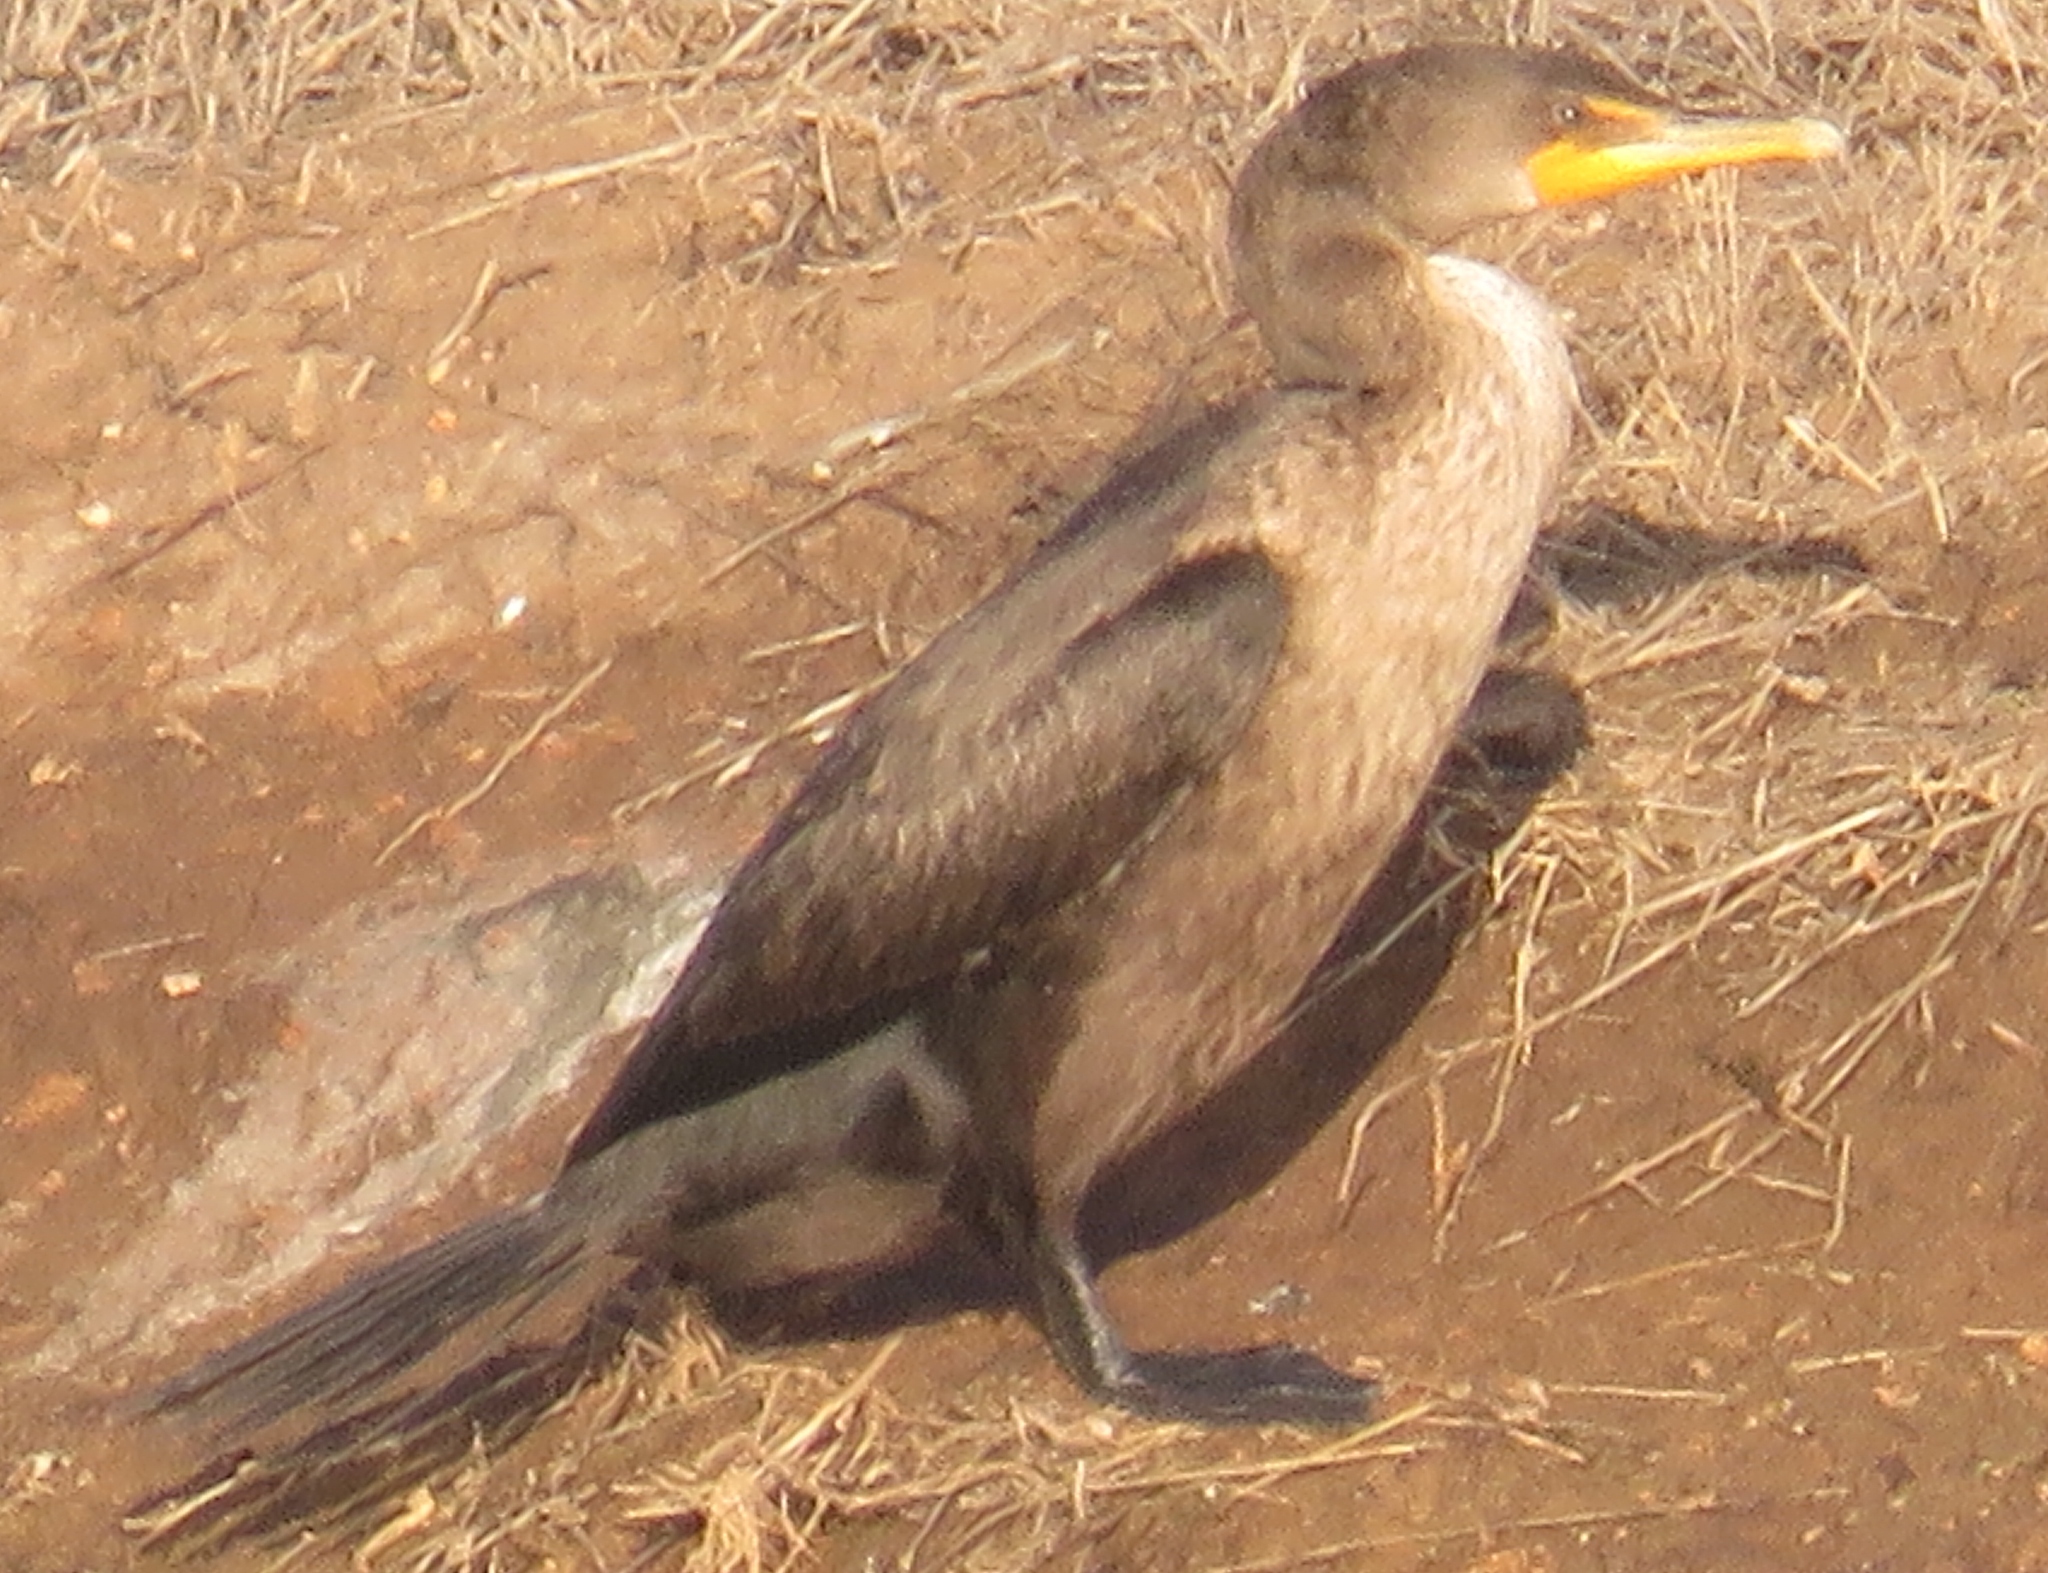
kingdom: Animalia
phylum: Chordata
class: Aves
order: Suliformes
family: Phalacrocoracidae
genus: Phalacrocorax
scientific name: Phalacrocorax auritus
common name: Double-crested cormorant
